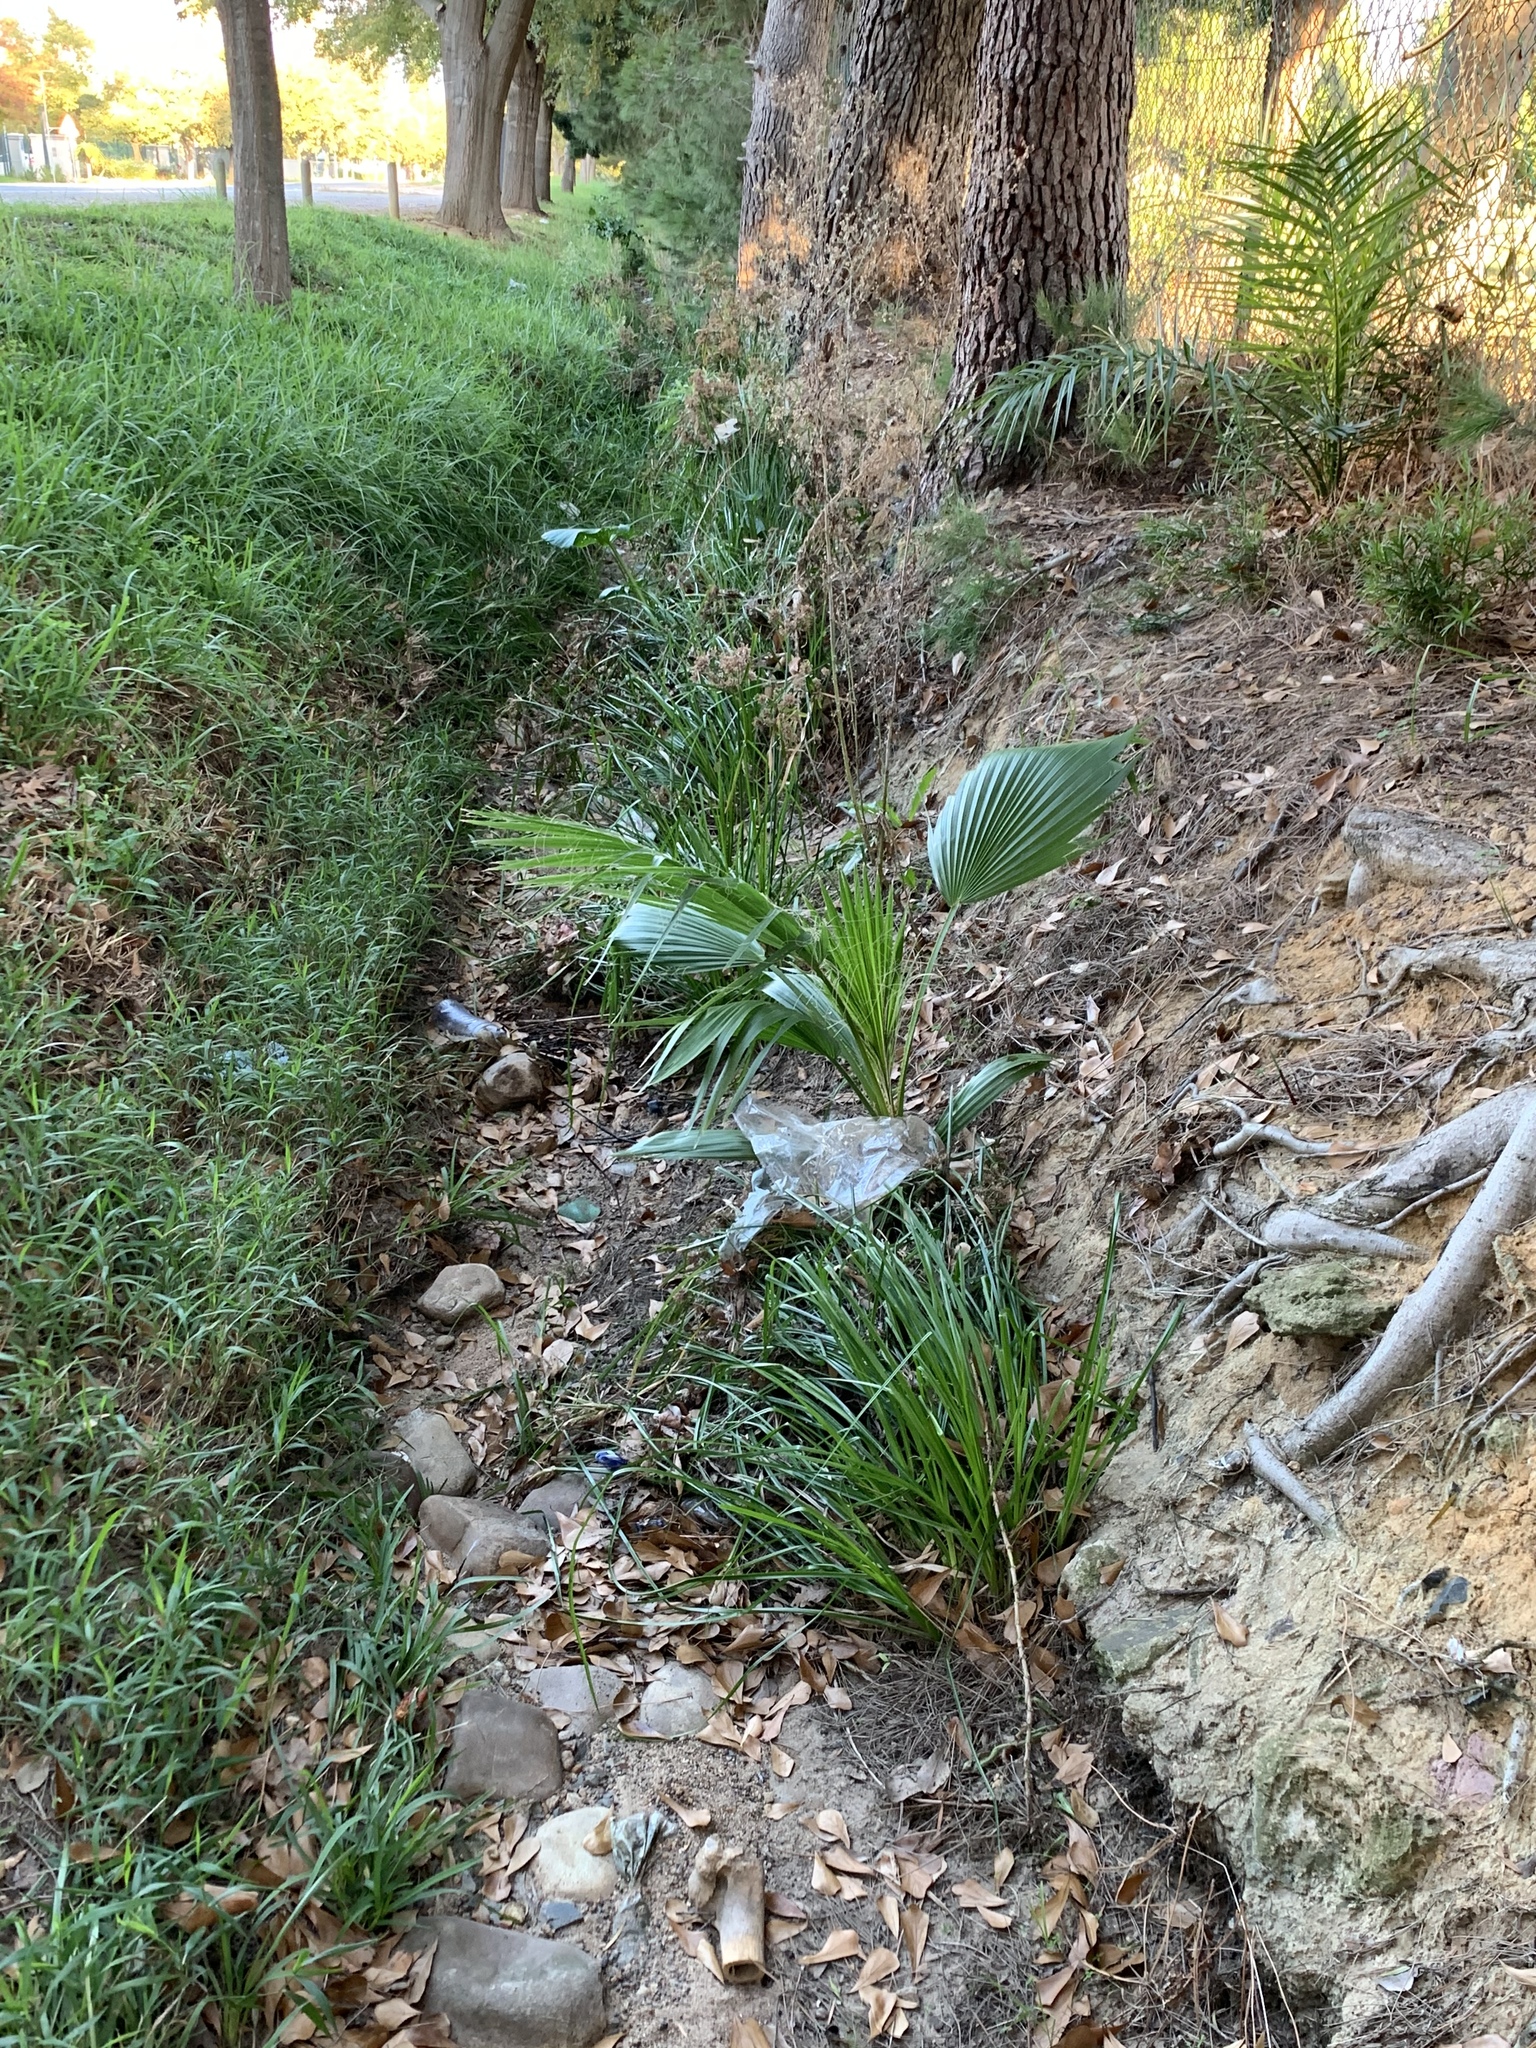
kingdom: Plantae
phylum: Tracheophyta
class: Liliopsida
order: Arecales
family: Arecaceae
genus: Washingtonia
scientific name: Washingtonia robusta
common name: Mexican fan palm
